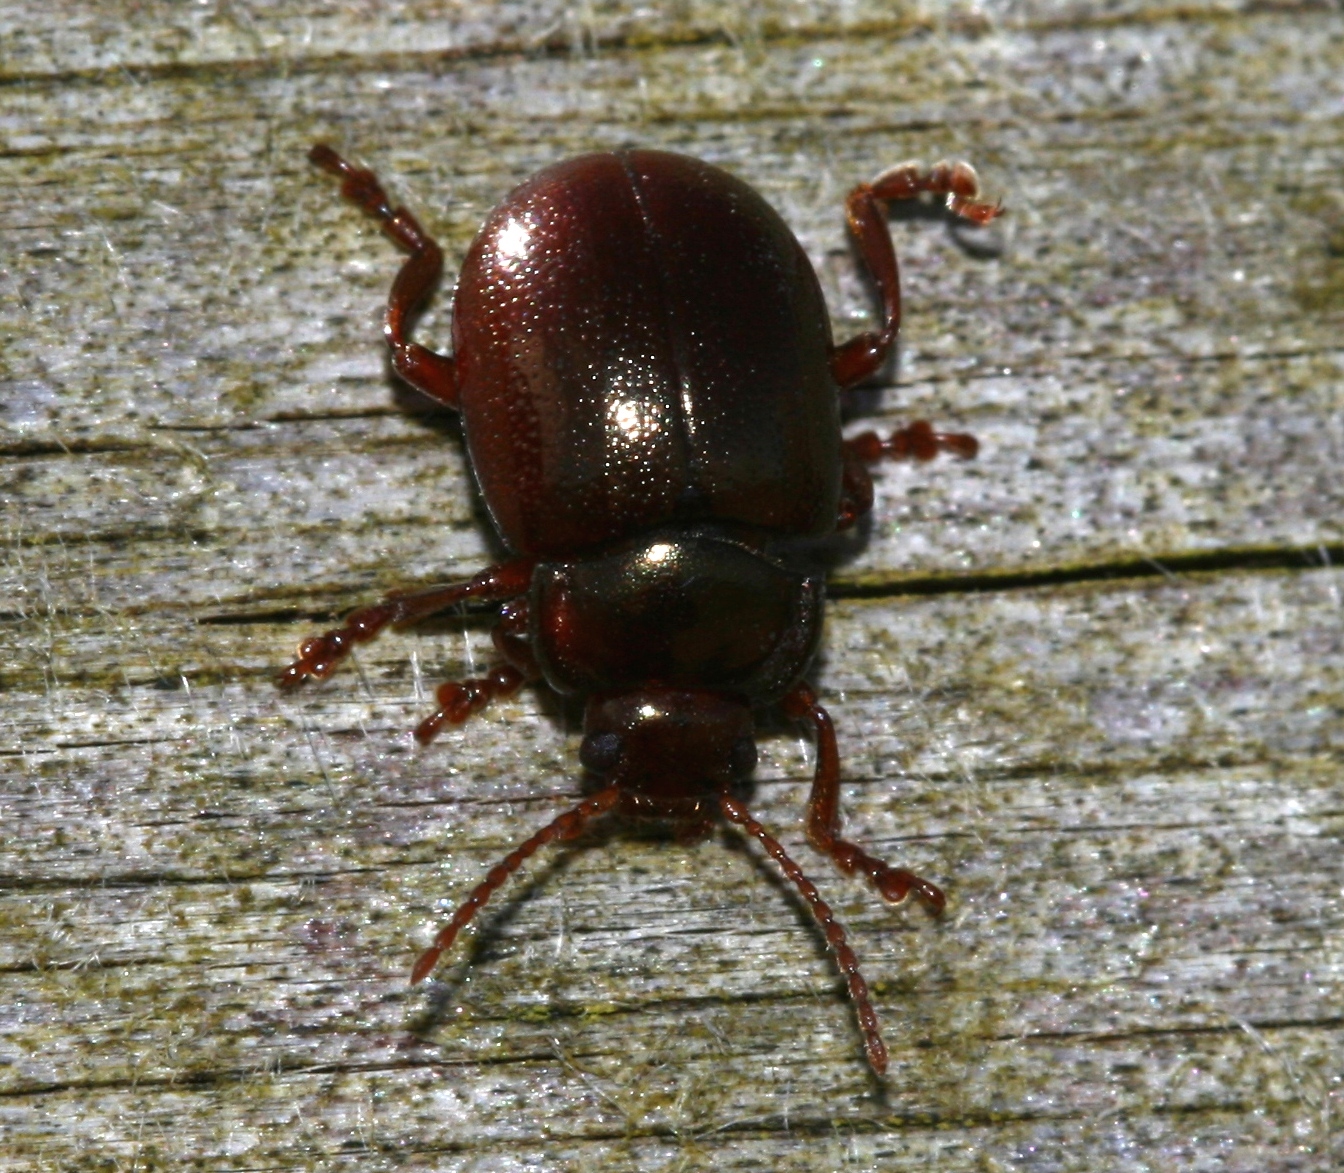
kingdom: Animalia
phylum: Arthropoda
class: Insecta
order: Coleoptera
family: Chrysomelidae
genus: Chrysolina
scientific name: Chrysolina staphylaea
